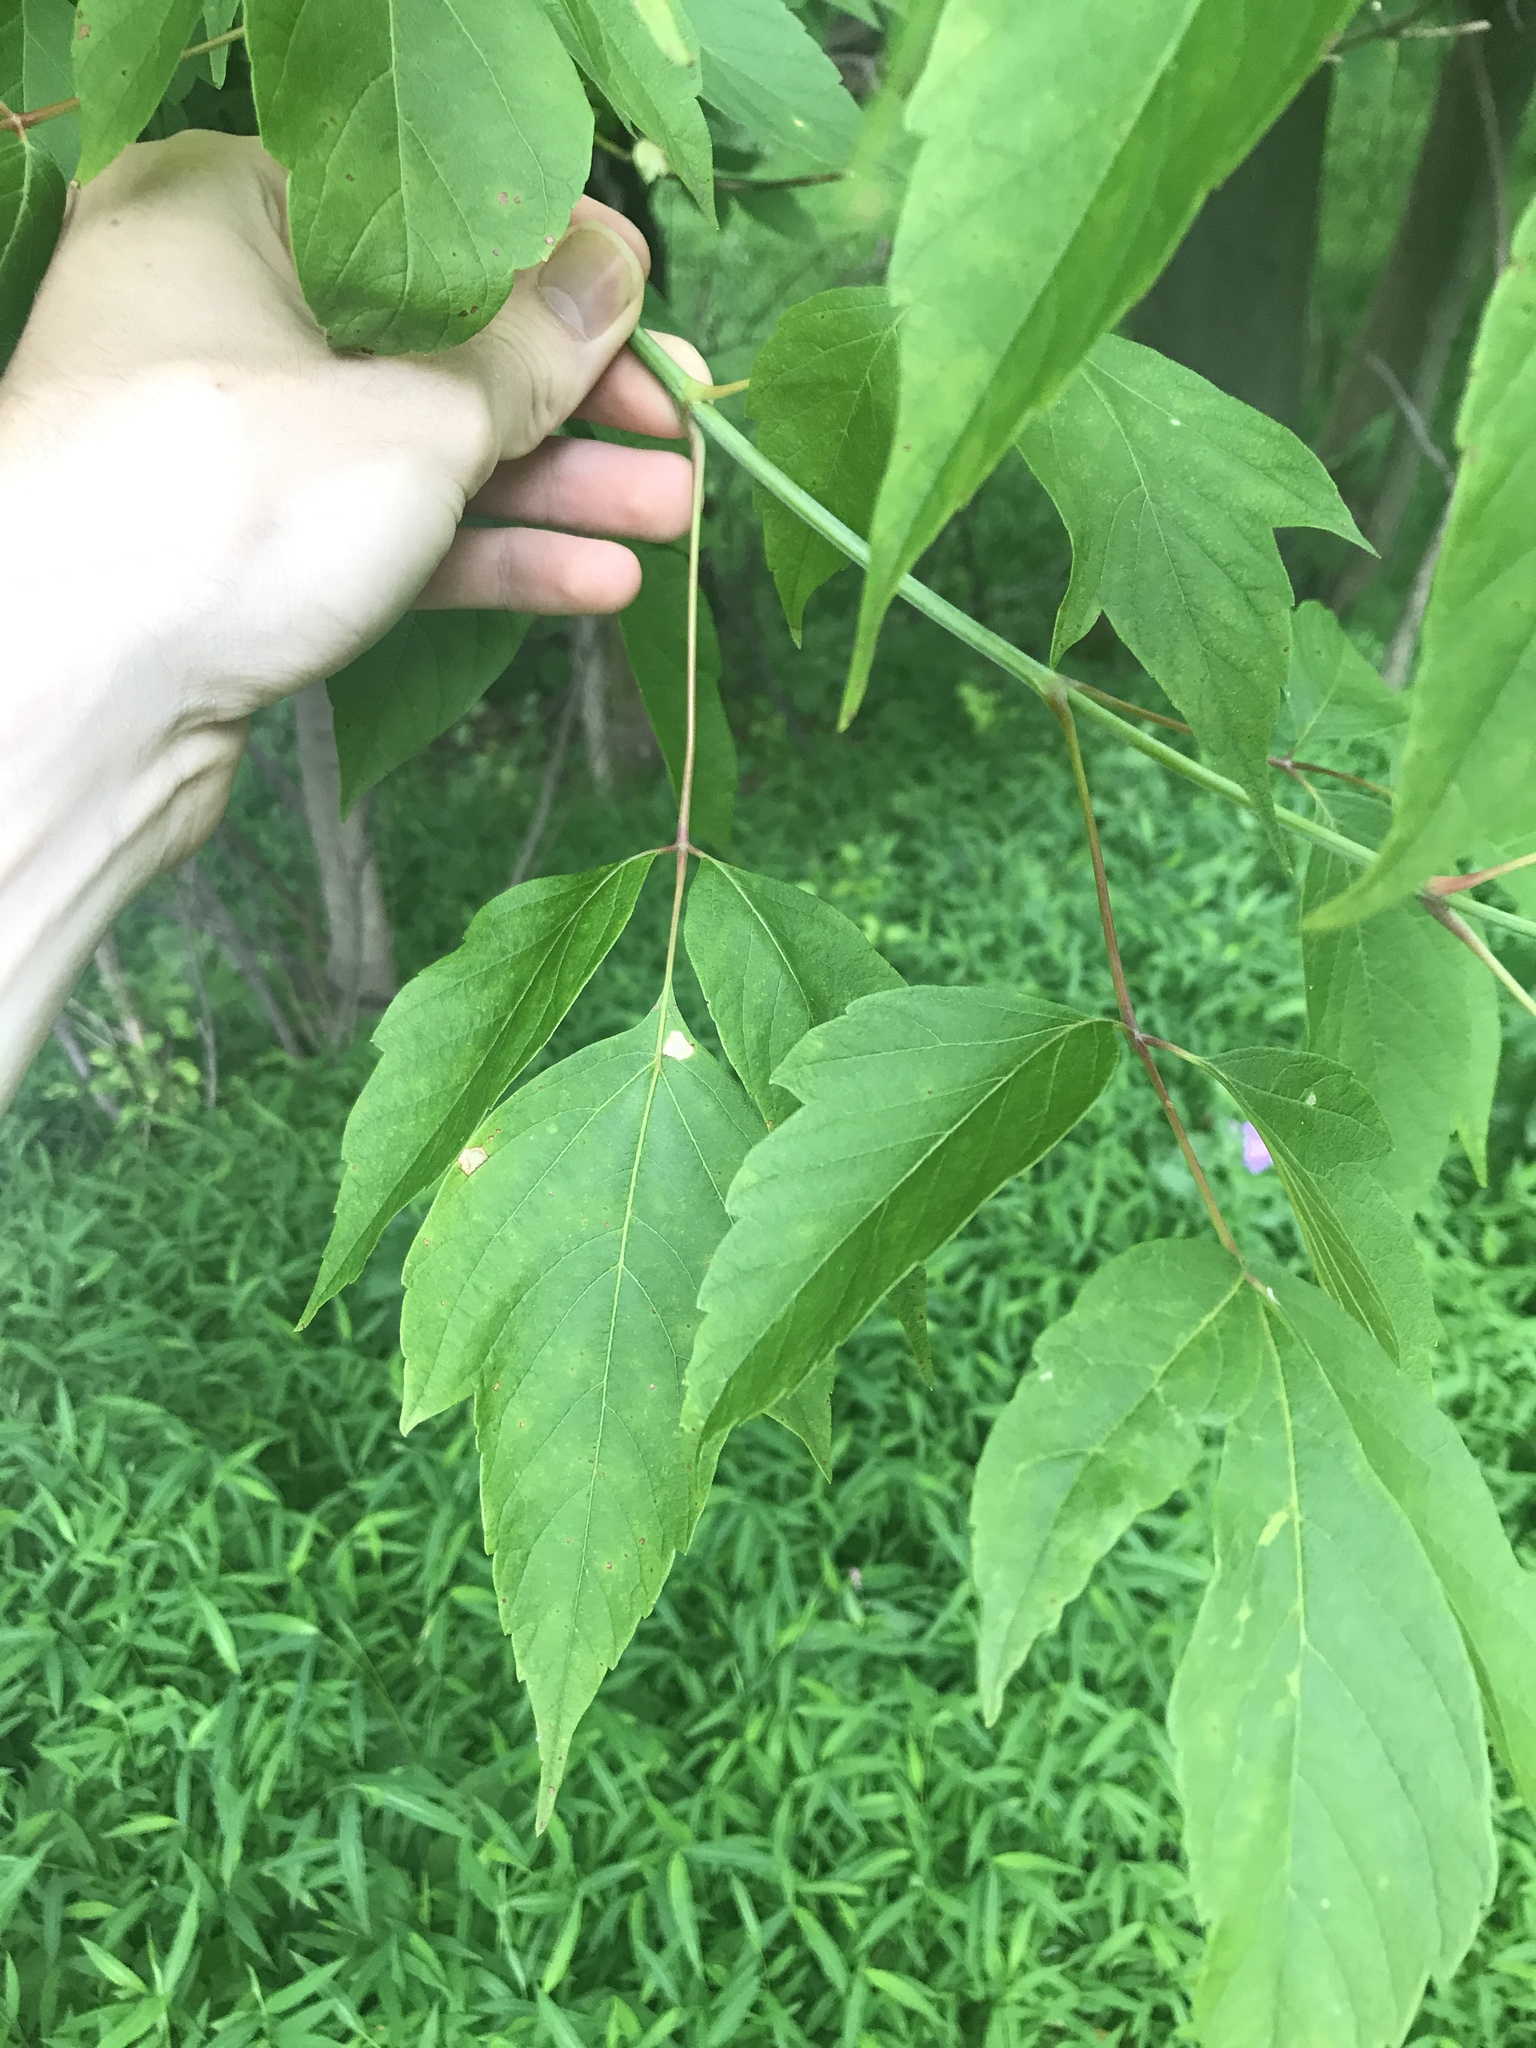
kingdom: Plantae
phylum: Tracheophyta
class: Magnoliopsida
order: Sapindales
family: Sapindaceae
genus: Acer
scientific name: Acer negundo
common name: Ashleaf maple
